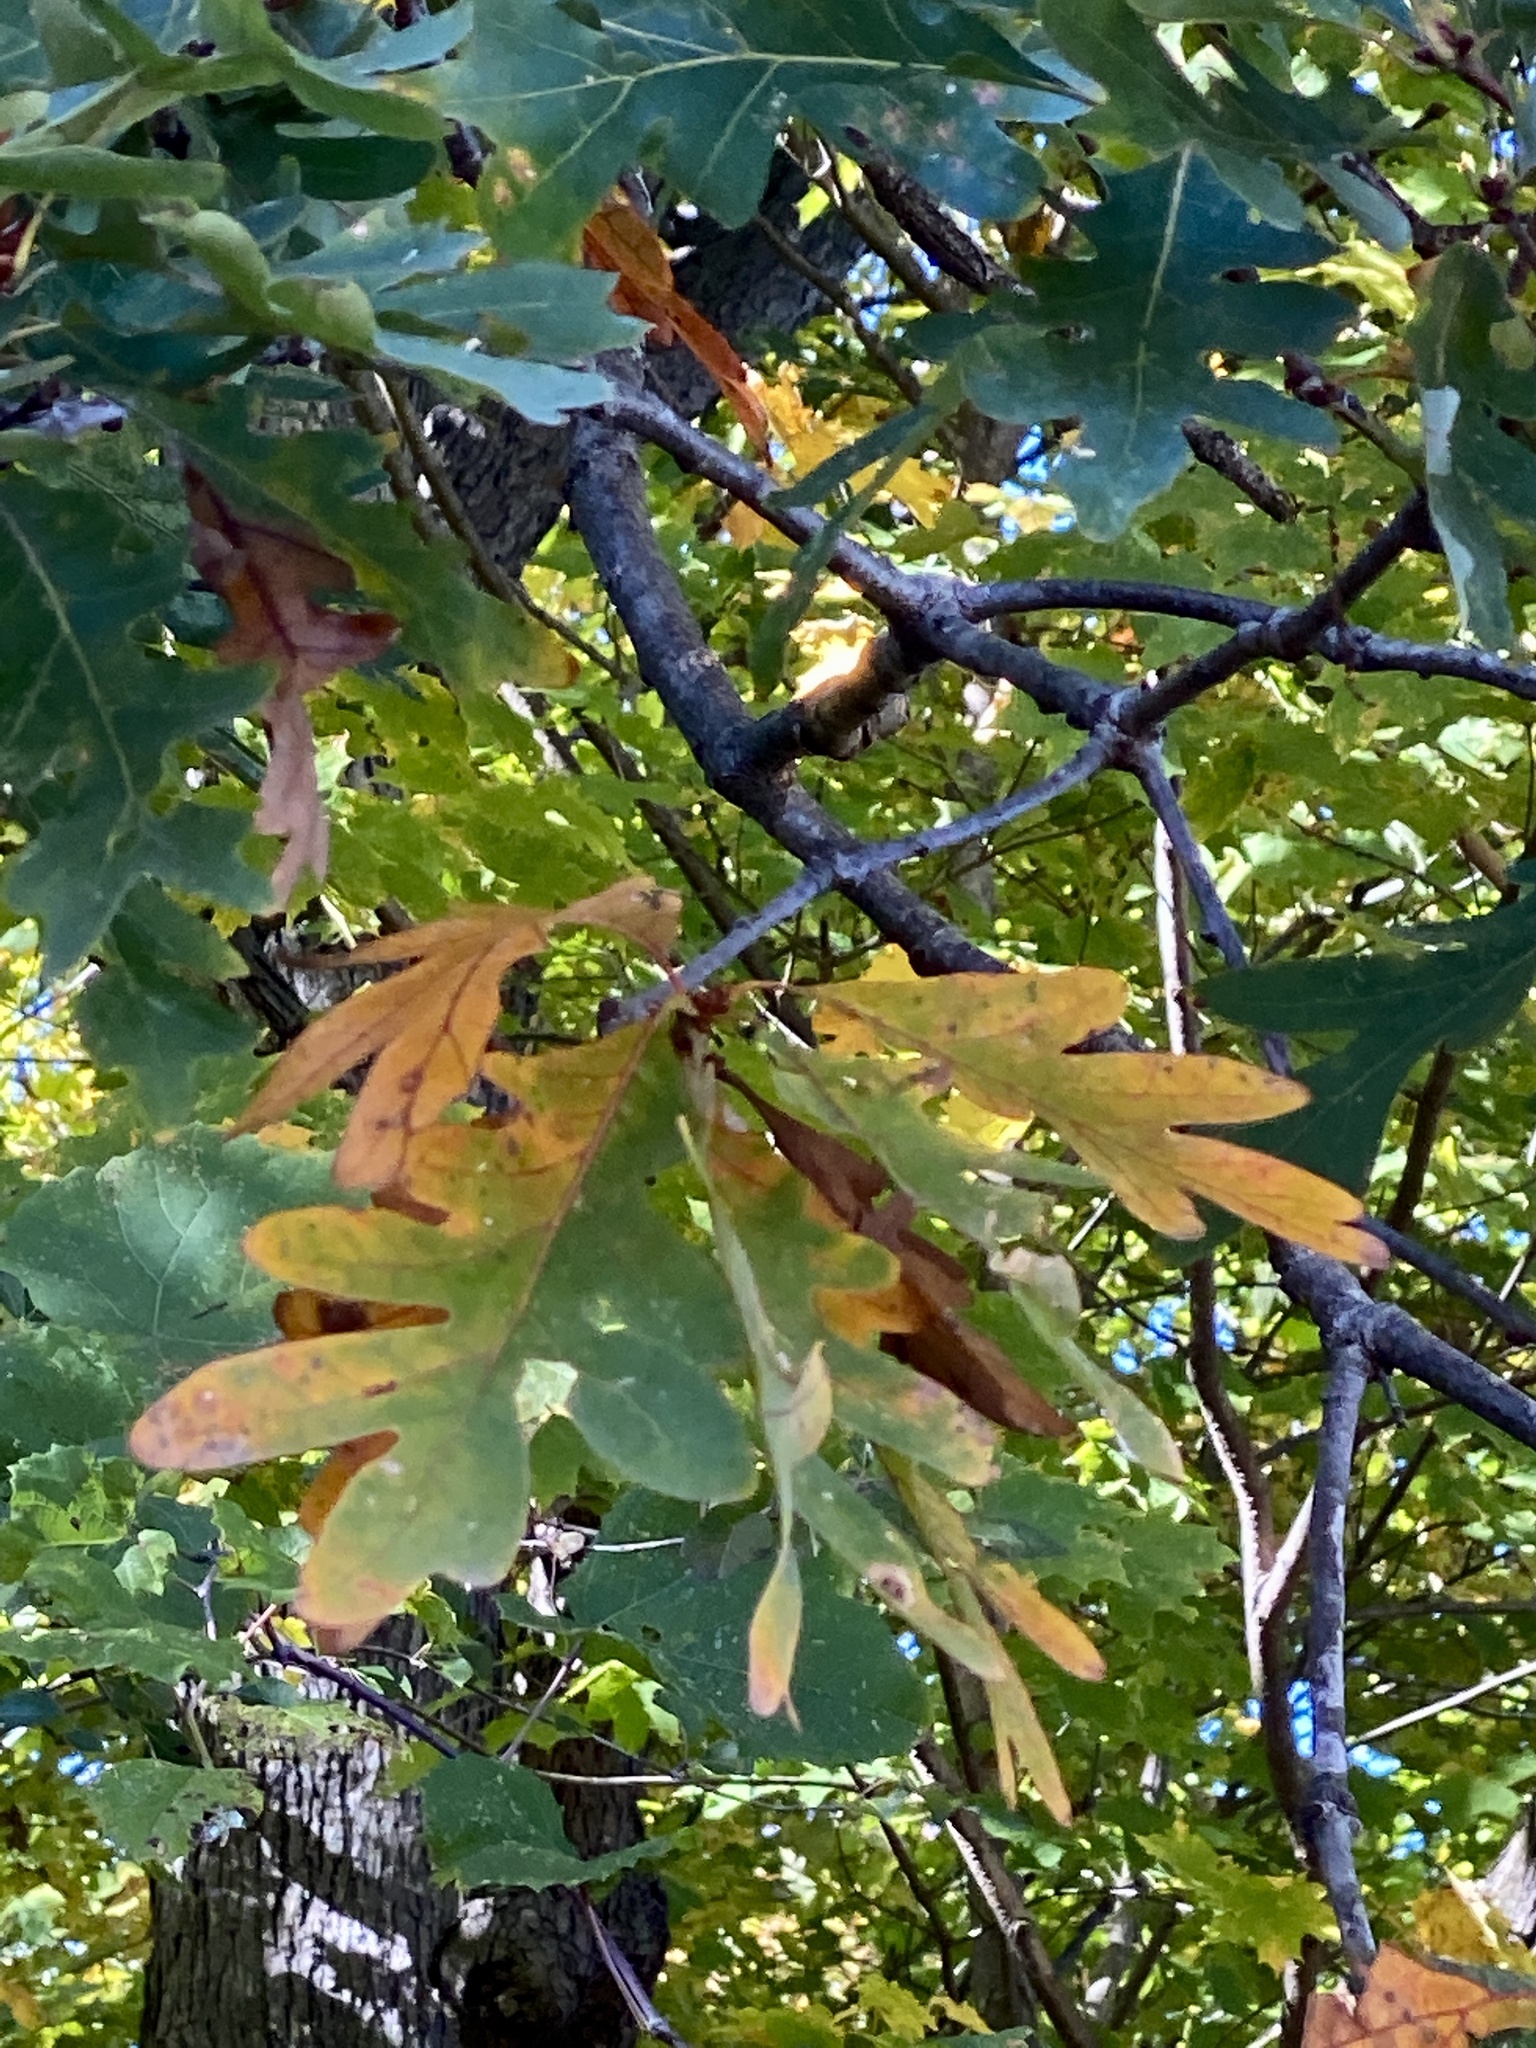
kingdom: Plantae
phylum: Tracheophyta
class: Magnoliopsida
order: Fagales
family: Fagaceae
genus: Quercus
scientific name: Quercus alba
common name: White oak
